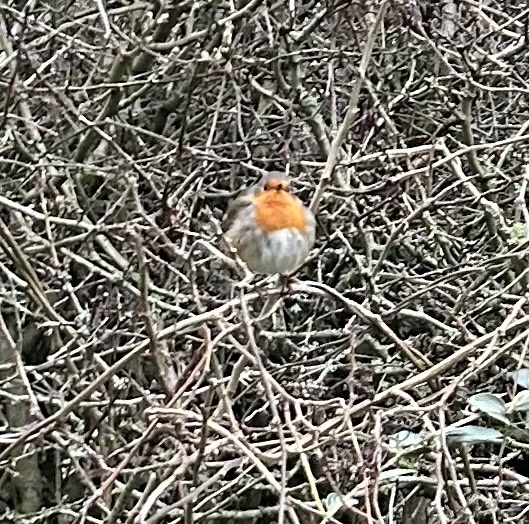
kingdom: Animalia
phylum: Chordata
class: Aves
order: Passeriformes
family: Muscicapidae
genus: Erithacus
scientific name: Erithacus rubecula
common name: European robin
